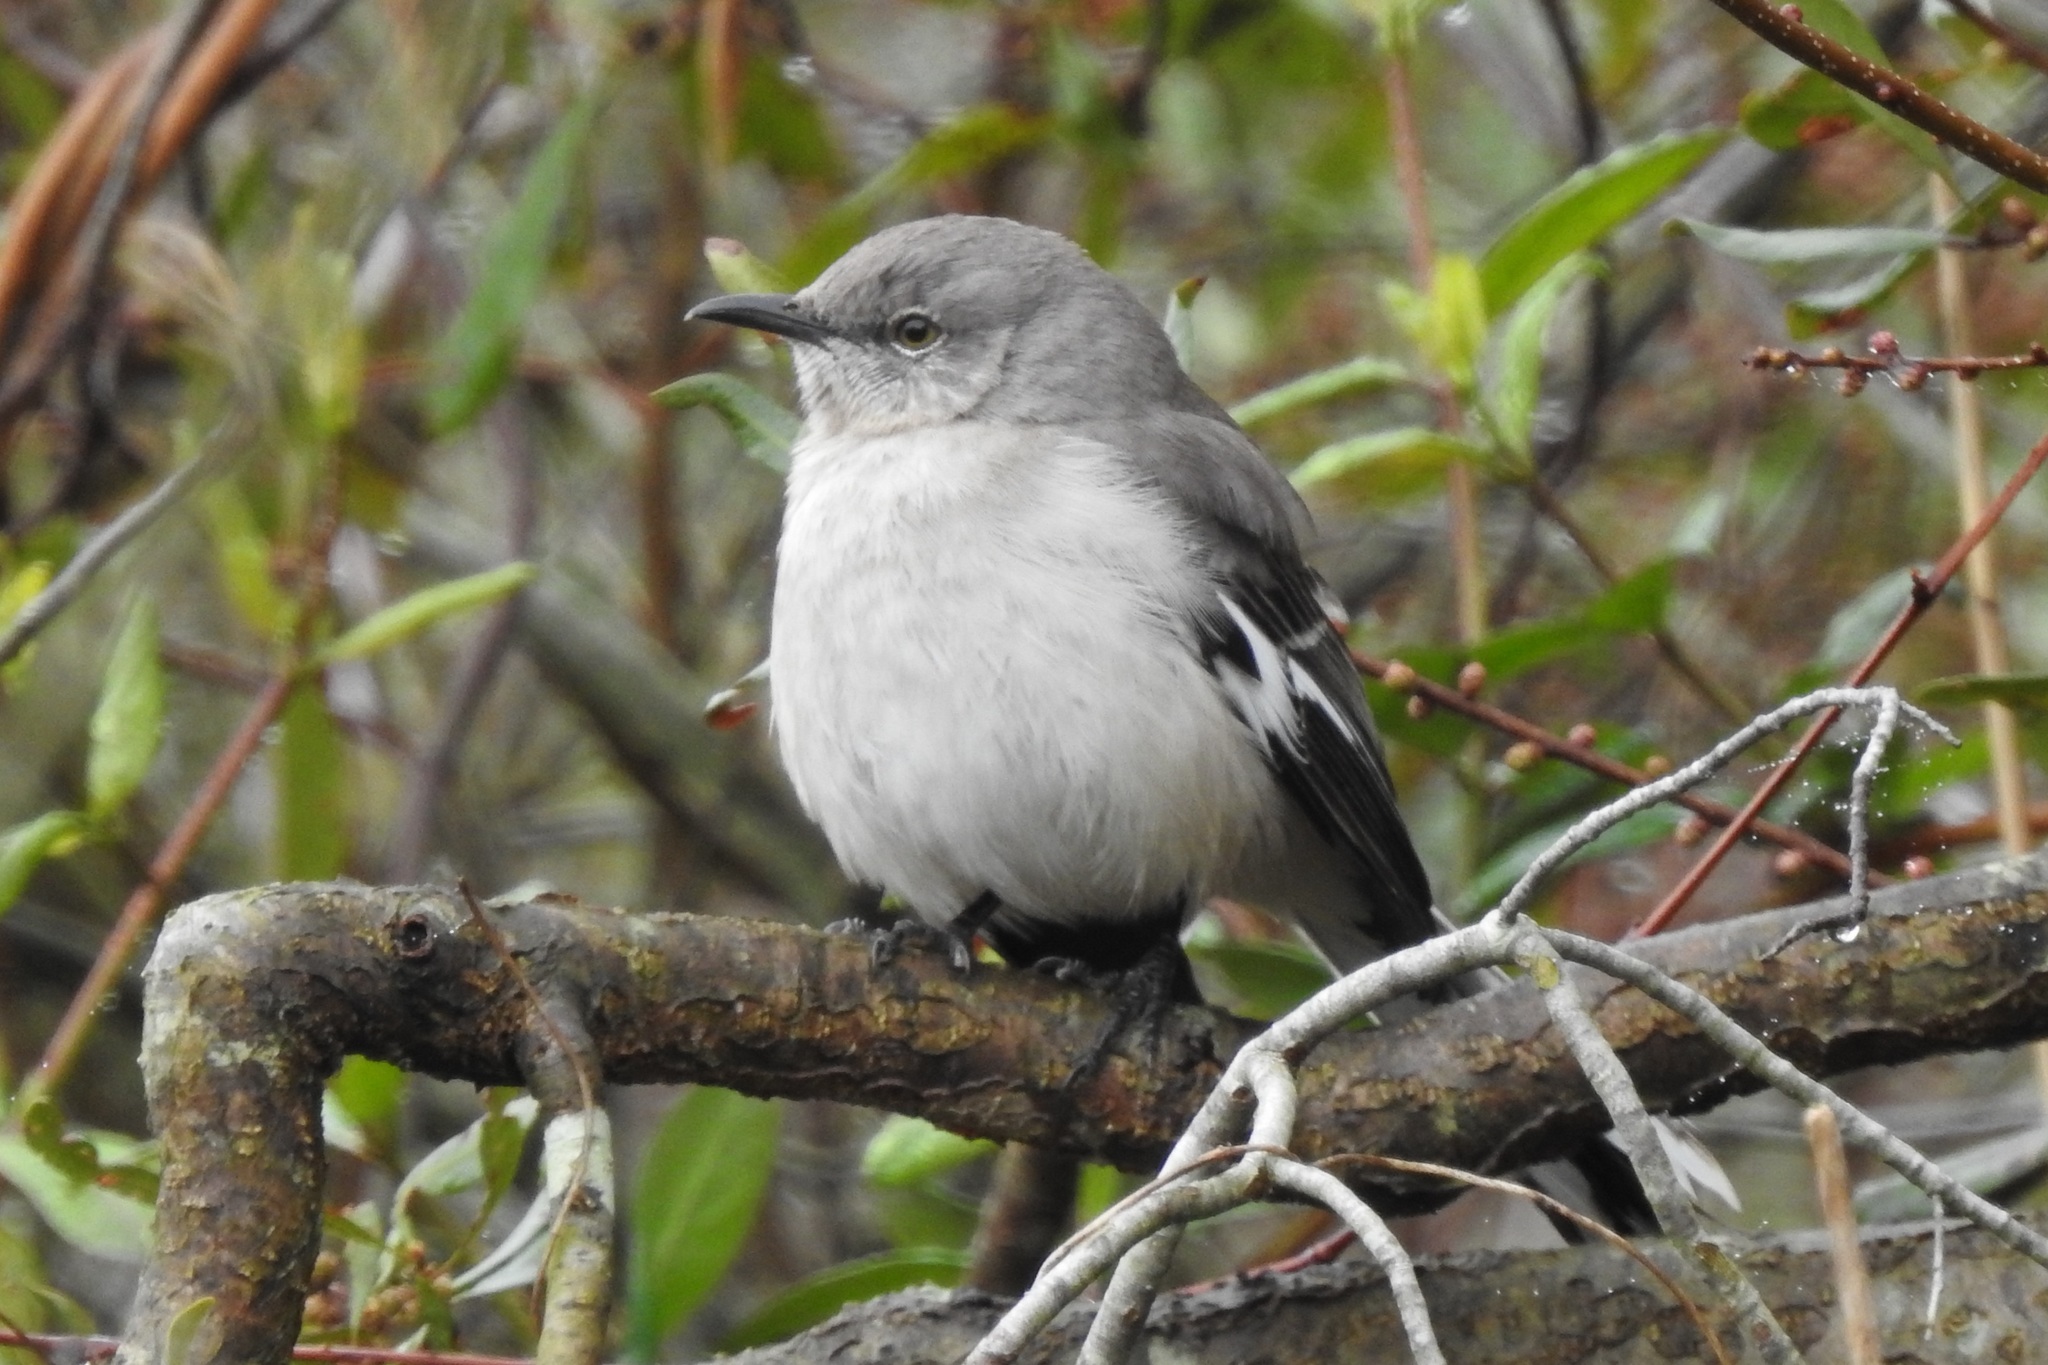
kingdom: Animalia
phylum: Chordata
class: Aves
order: Passeriformes
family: Mimidae
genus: Mimus
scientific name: Mimus polyglottos
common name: Northern mockingbird
